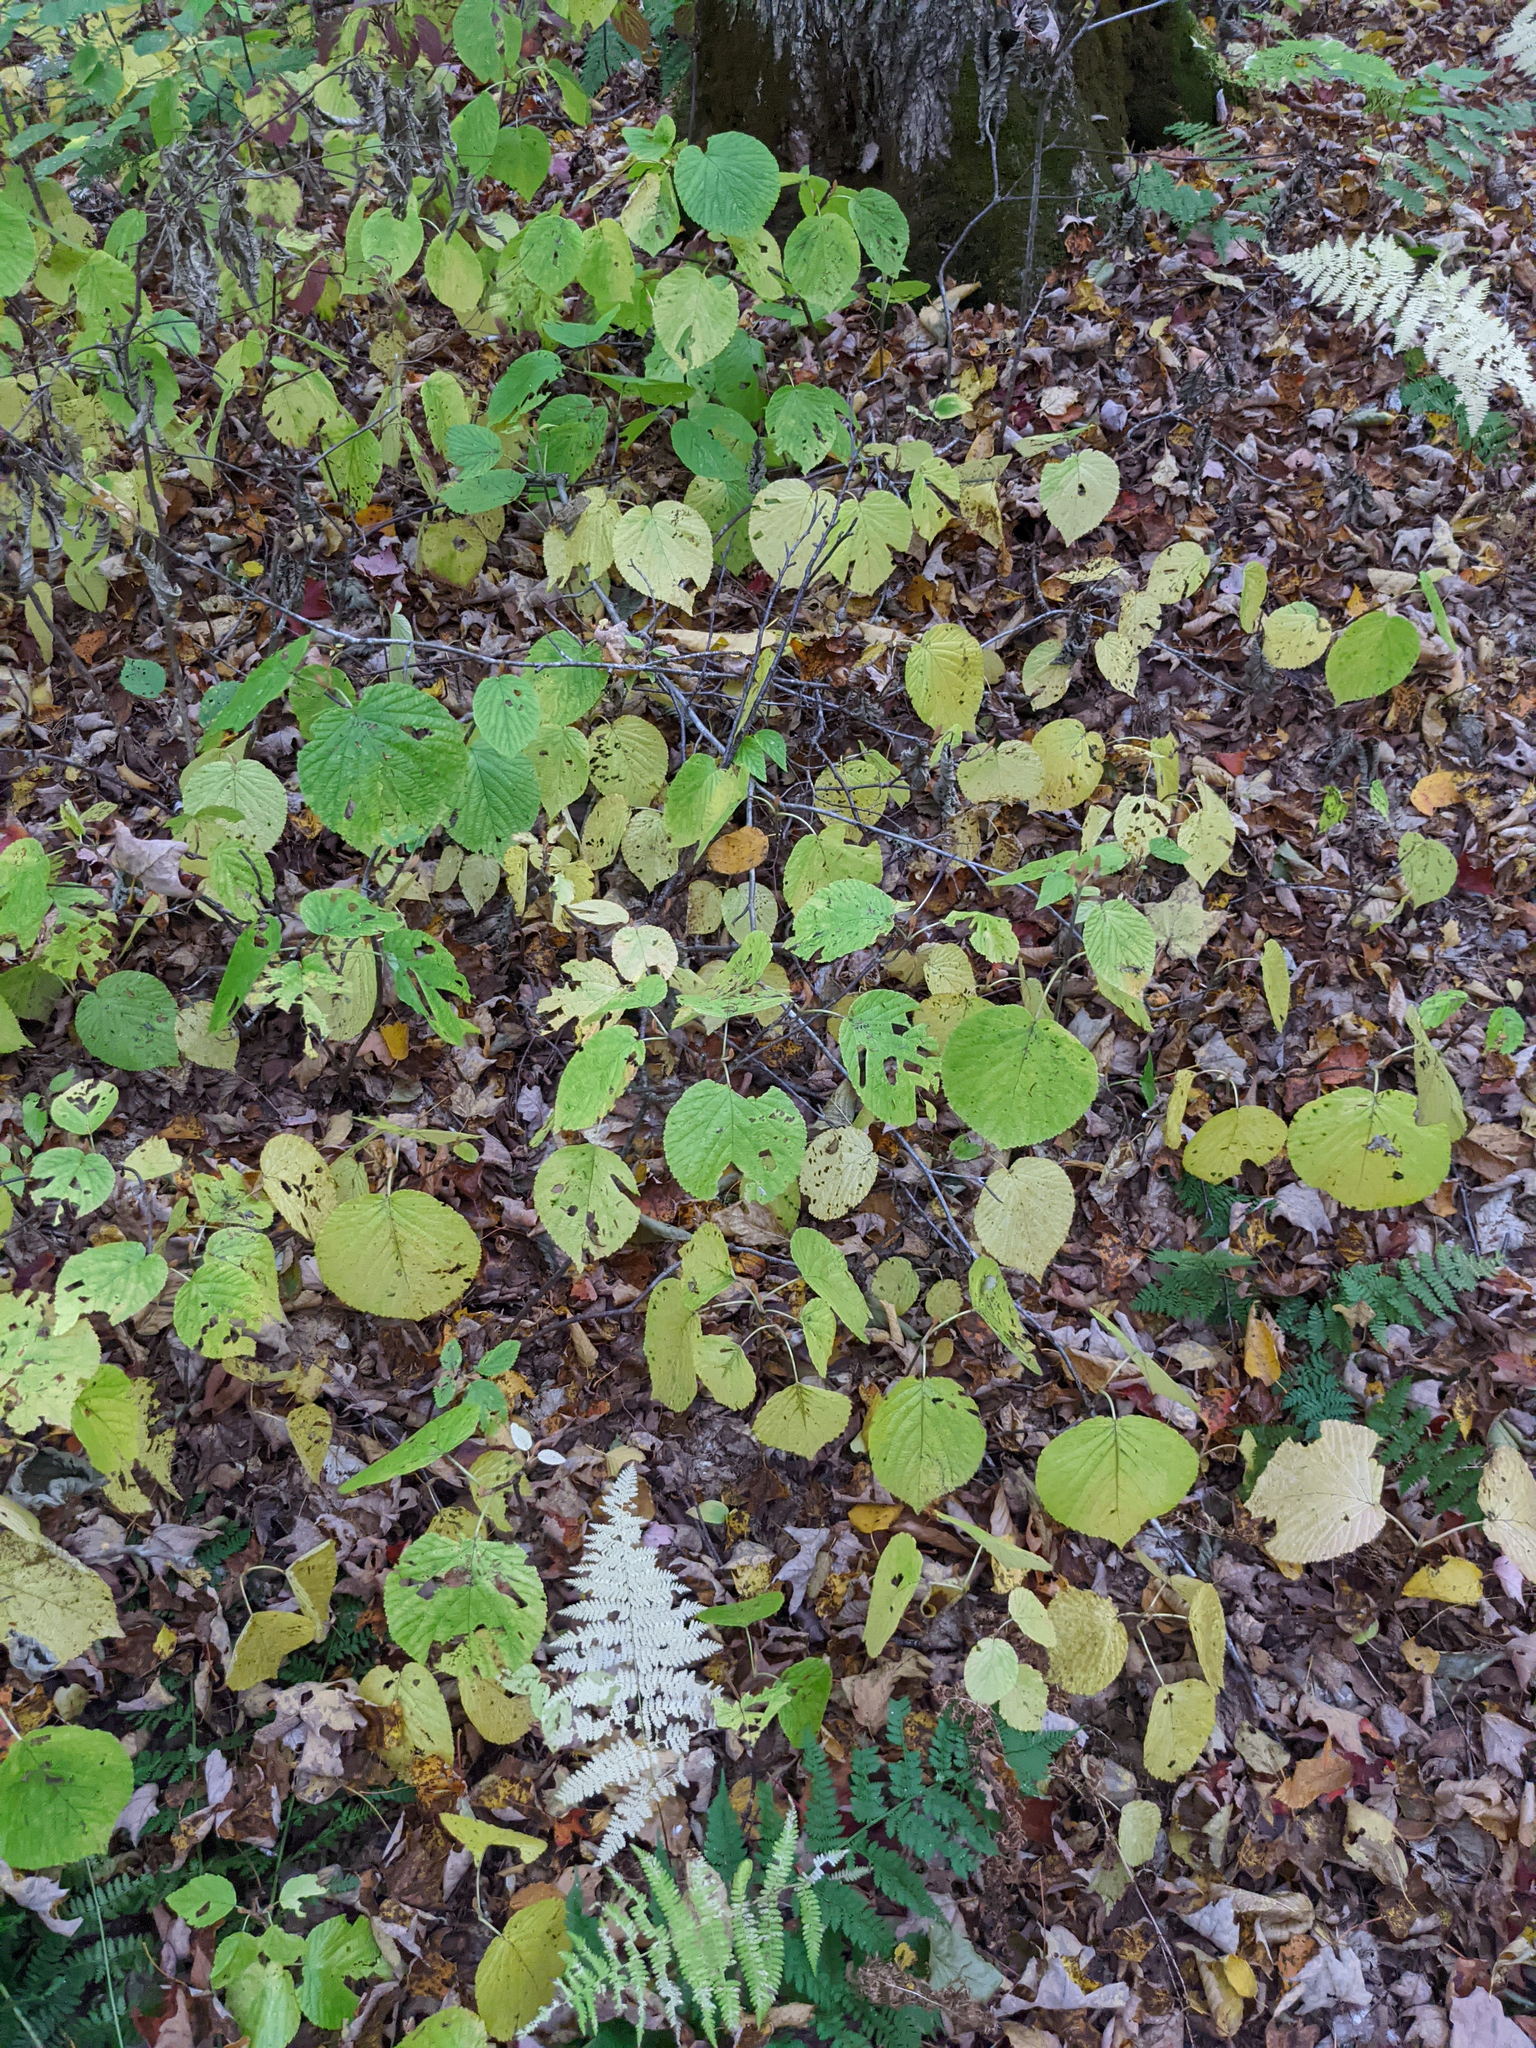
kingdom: Plantae
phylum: Tracheophyta
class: Magnoliopsida
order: Dipsacales
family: Viburnaceae
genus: Viburnum
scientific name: Viburnum lantanoides
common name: Hobblebush
